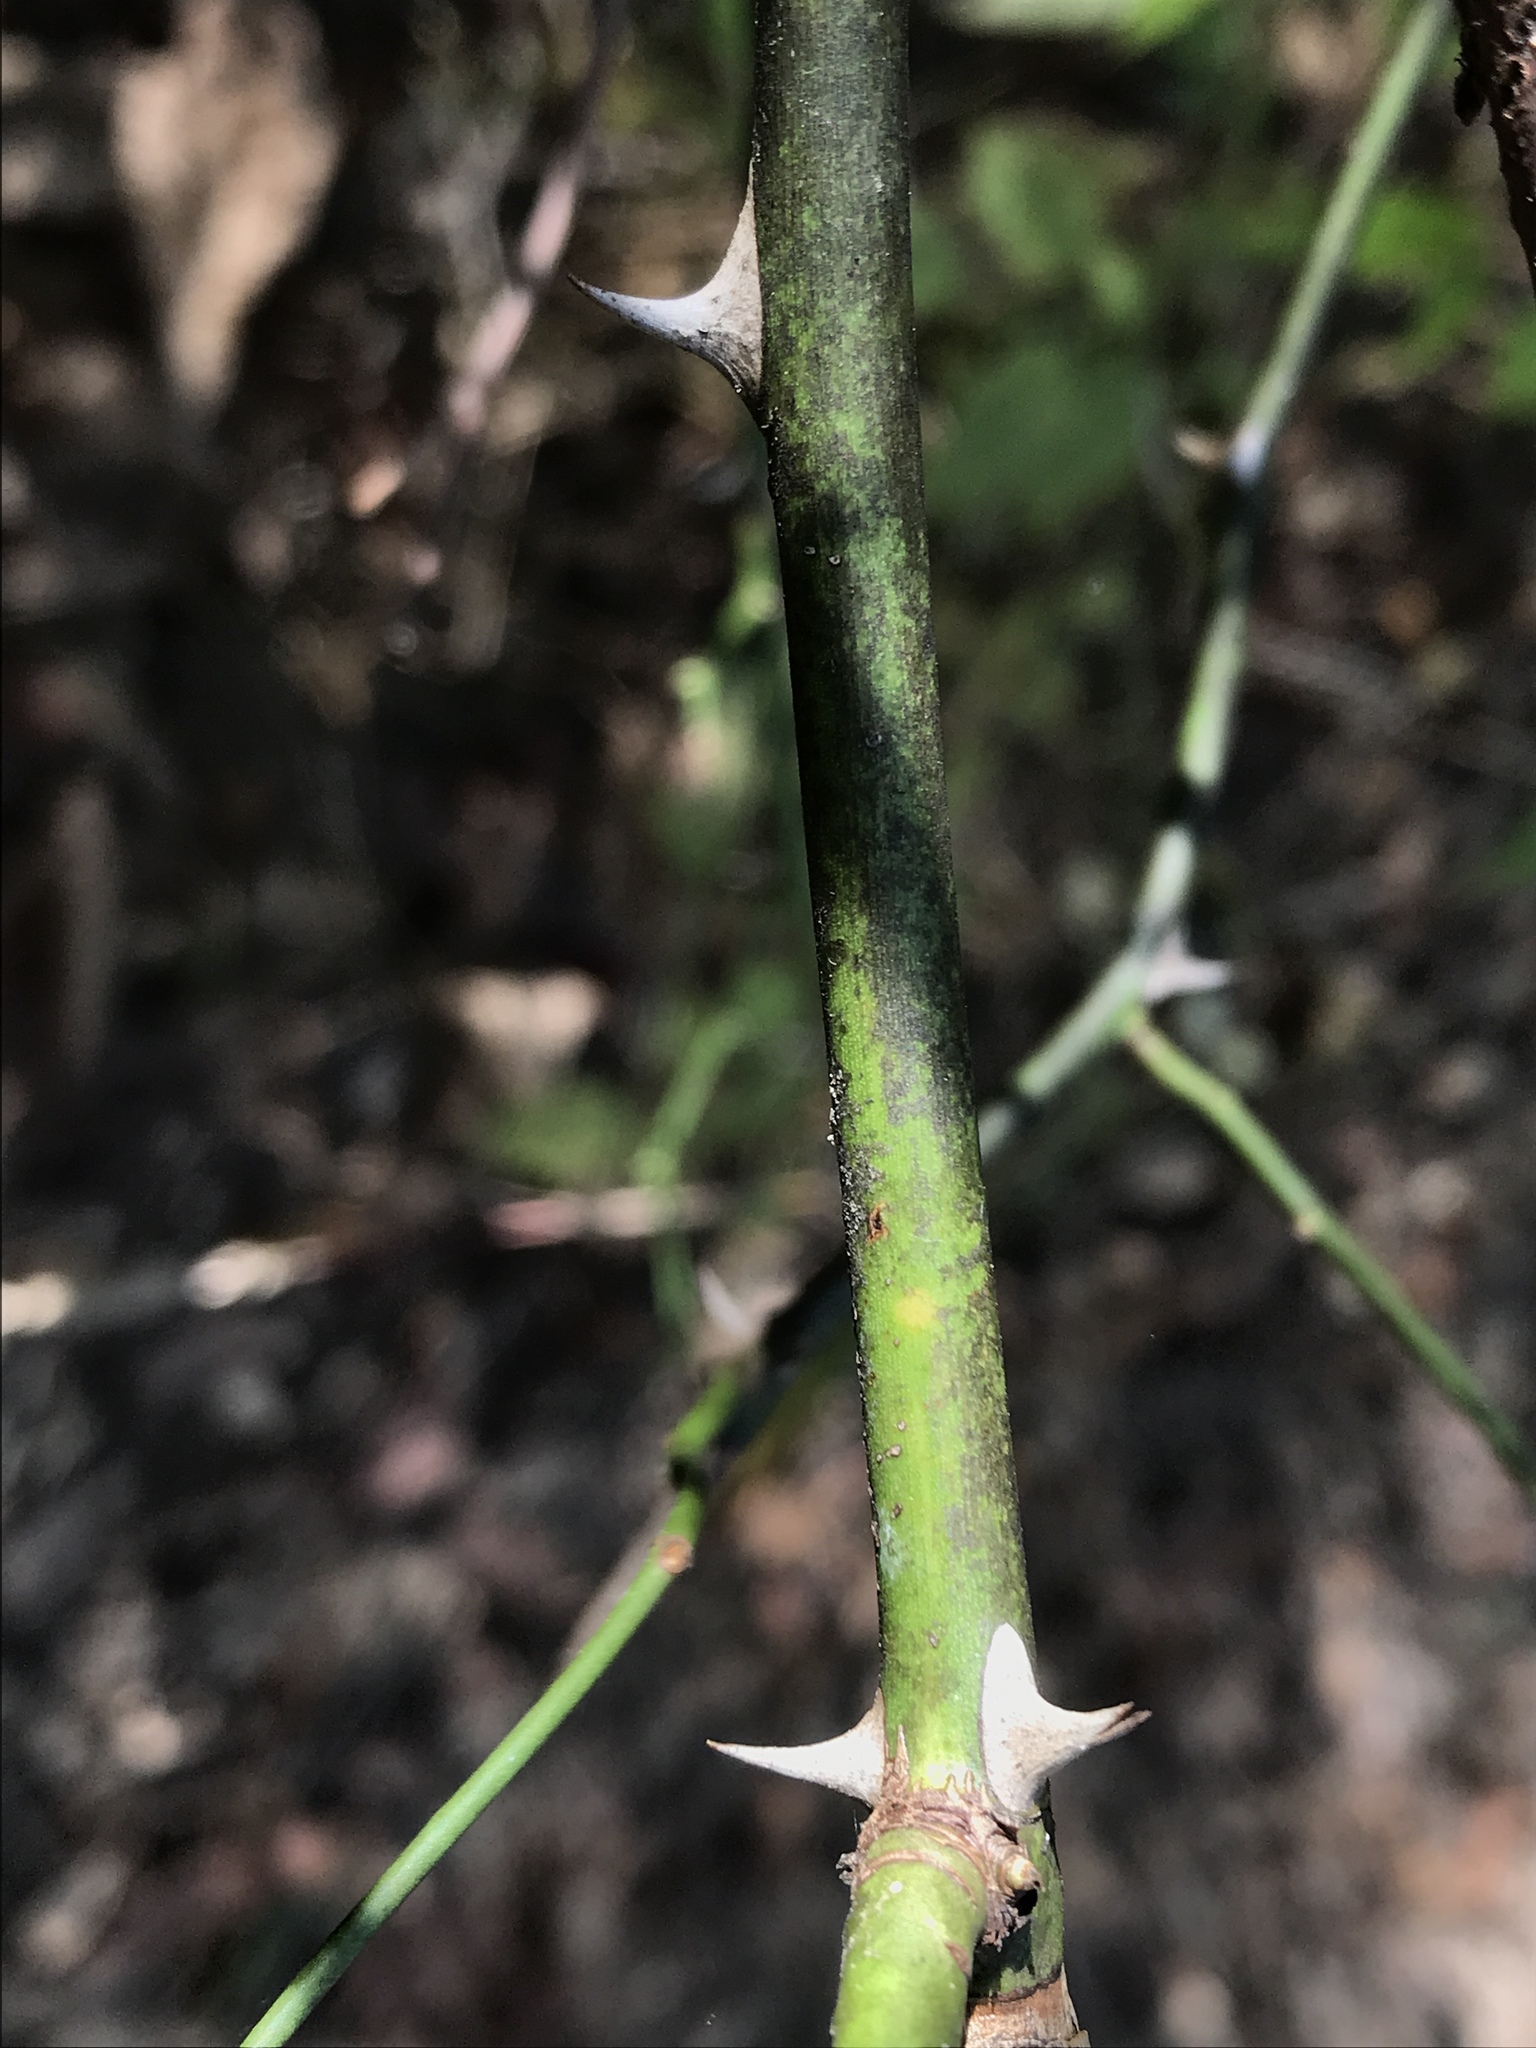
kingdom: Plantae
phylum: Tracheophyta
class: Magnoliopsida
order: Rosales
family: Rosaceae
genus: Rosa
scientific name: Rosa multiflora
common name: Multiflora rose
